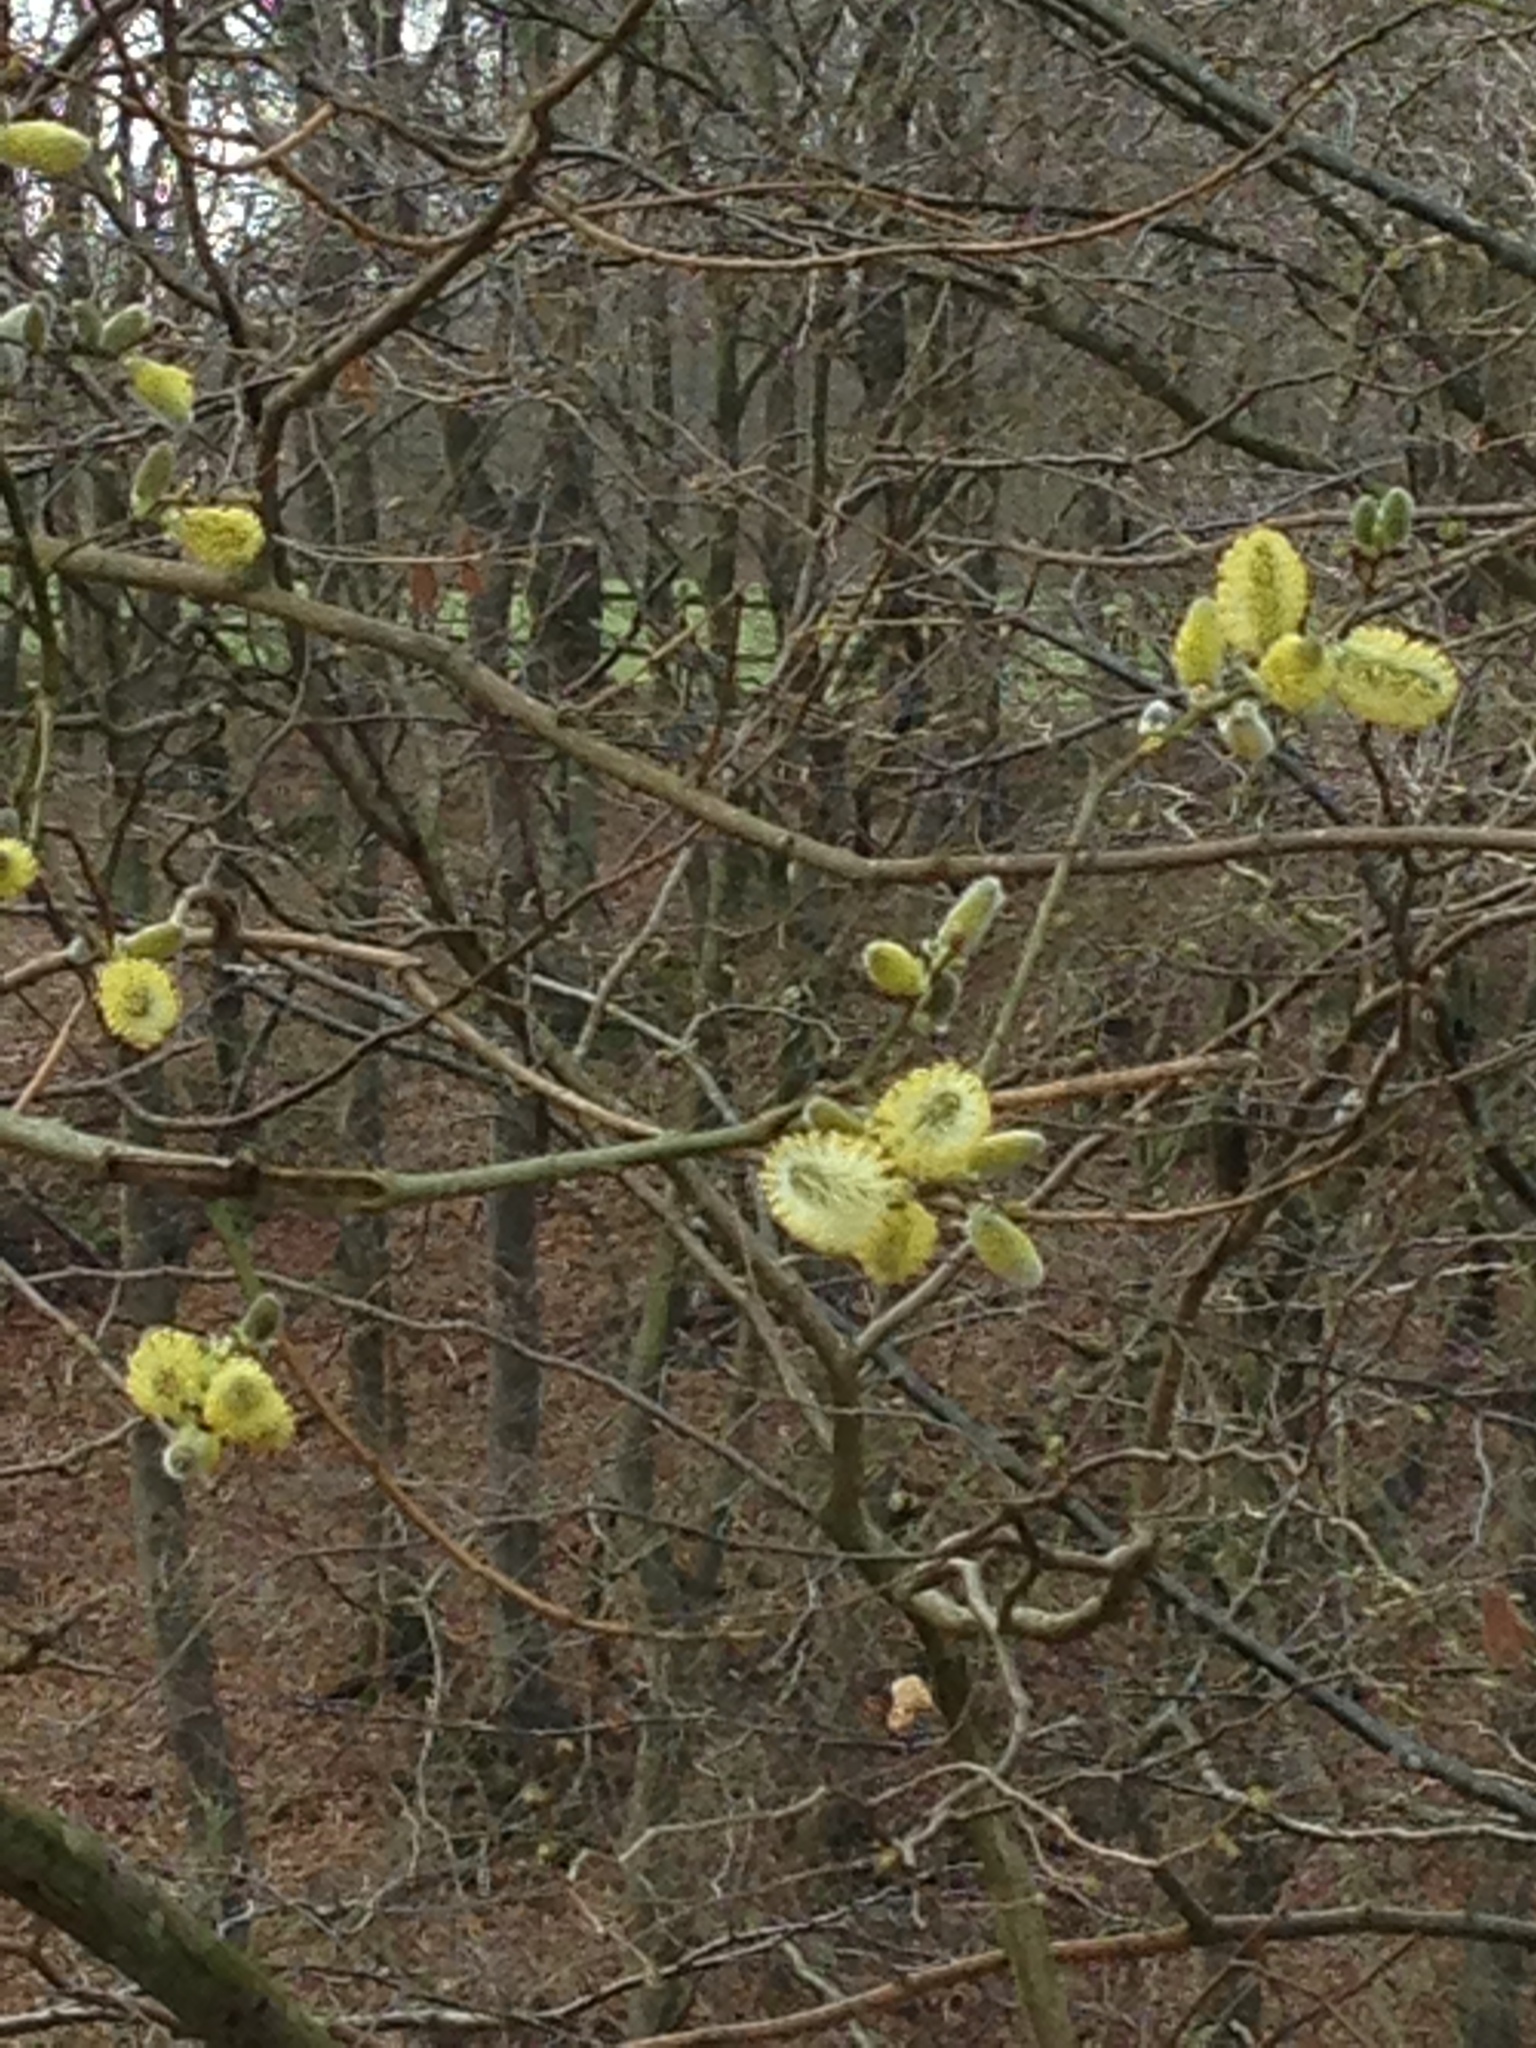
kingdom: Plantae
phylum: Tracheophyta
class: Magnoliopsida
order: Malpighiales
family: Salicaceae
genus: Salix
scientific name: Salix caprea
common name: Goat willow
